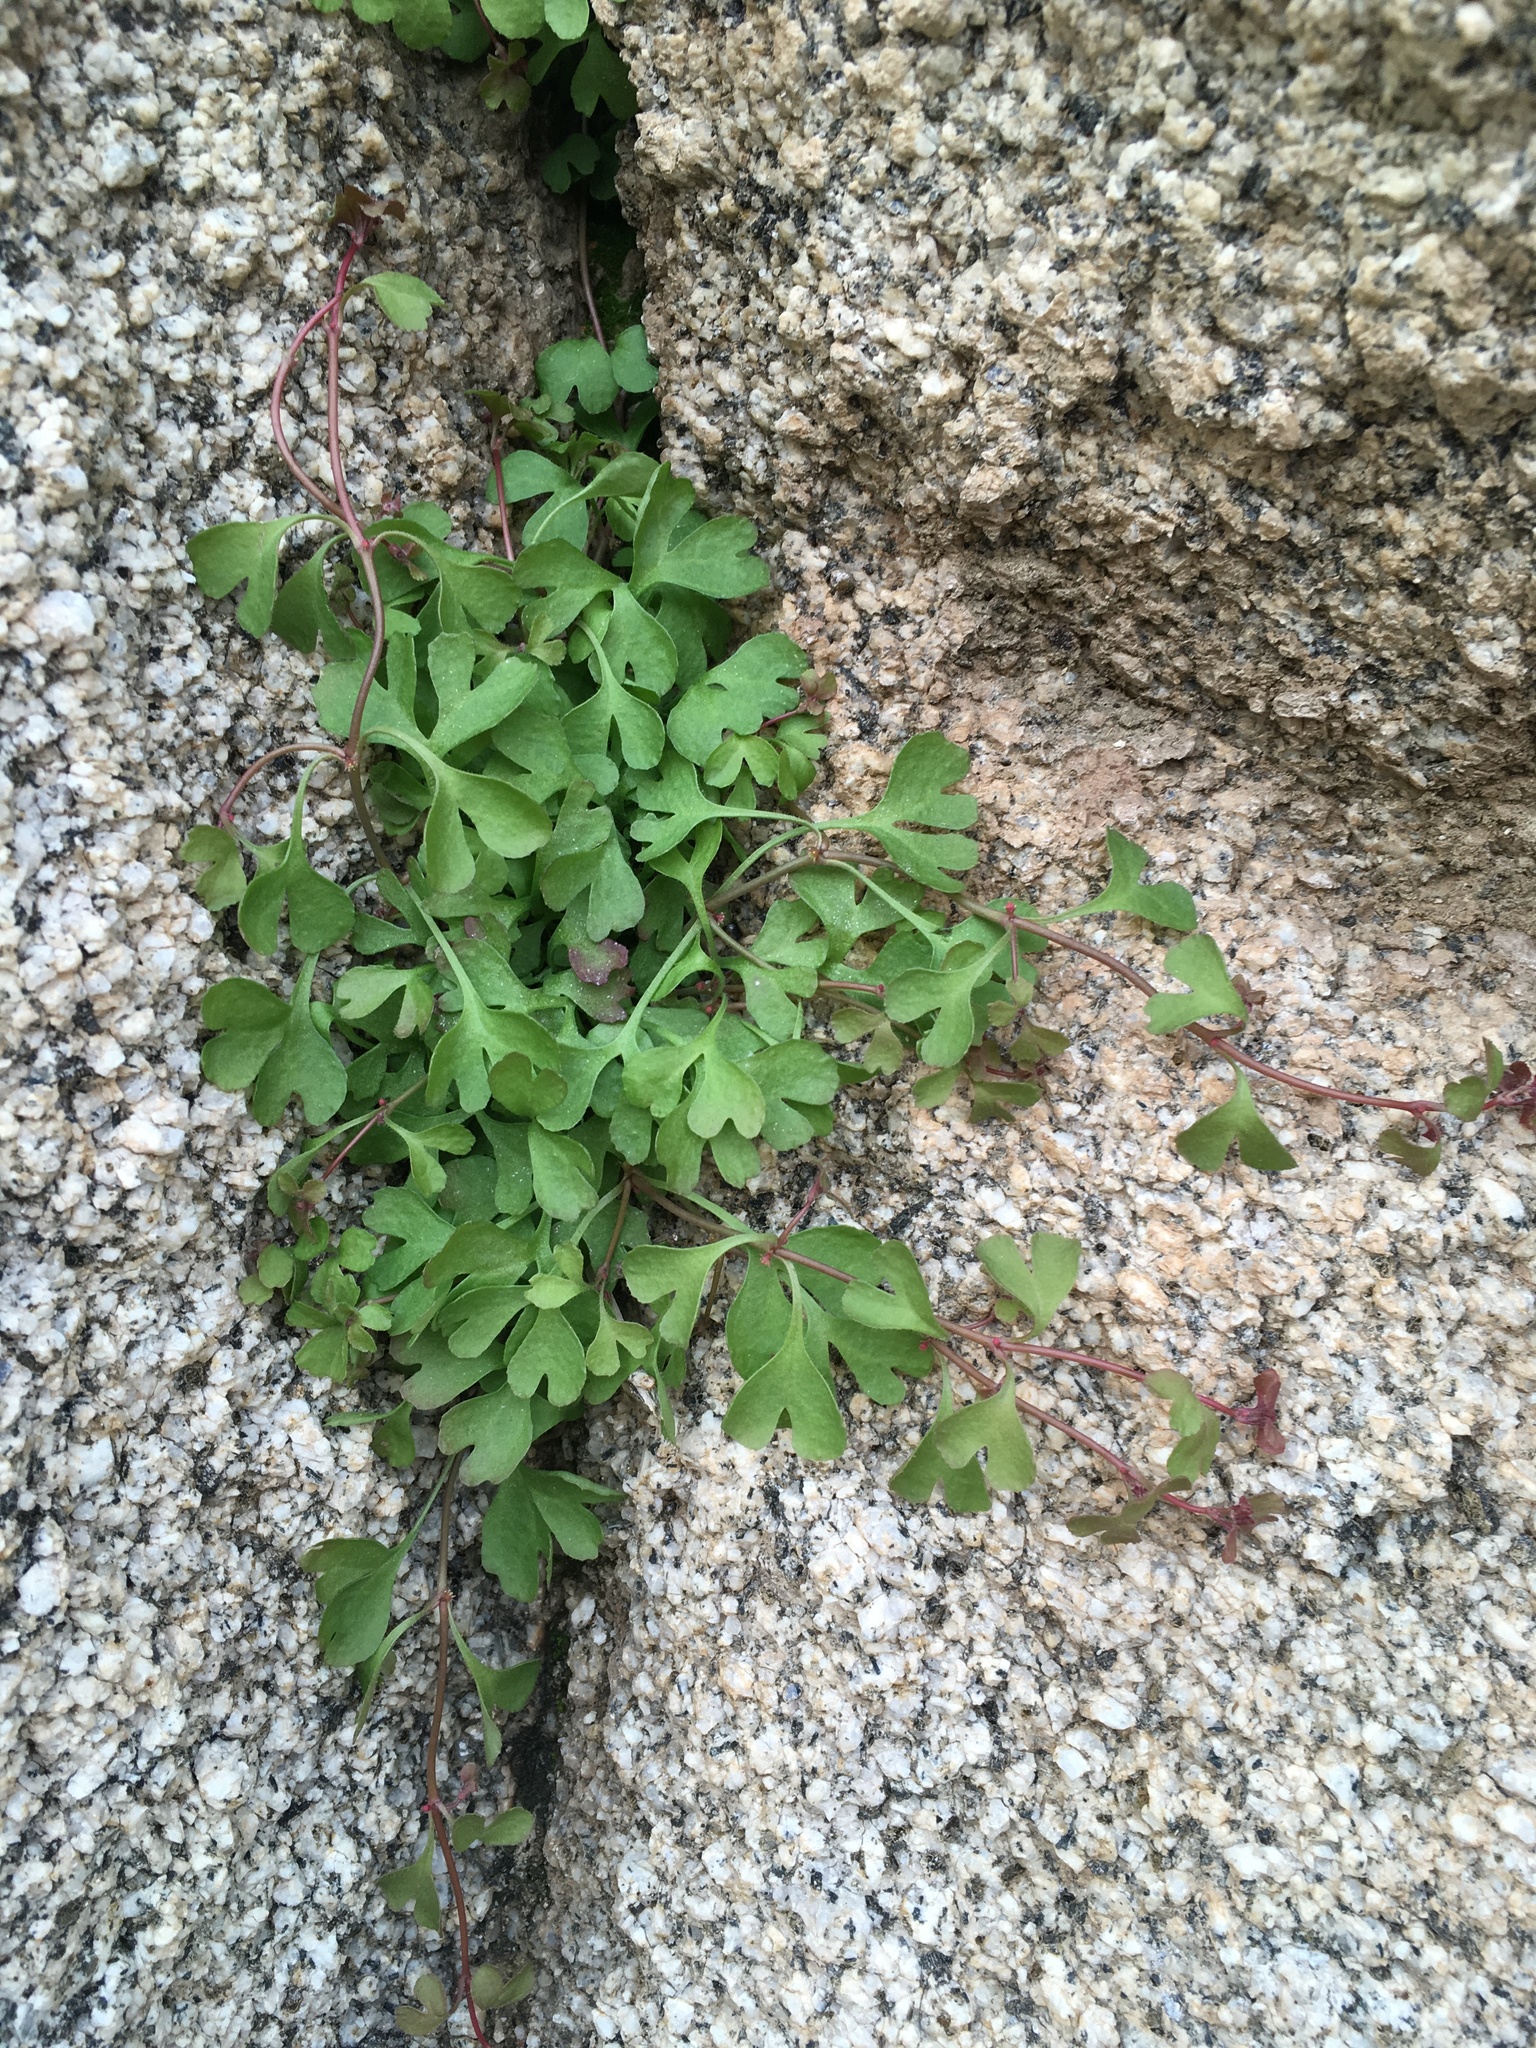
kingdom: Plantae
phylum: Tracheophyta
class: Magnoliopsida
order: Caryophyllales
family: Polygonaceae
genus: Pterostegia
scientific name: Pterostegia drymarioides
